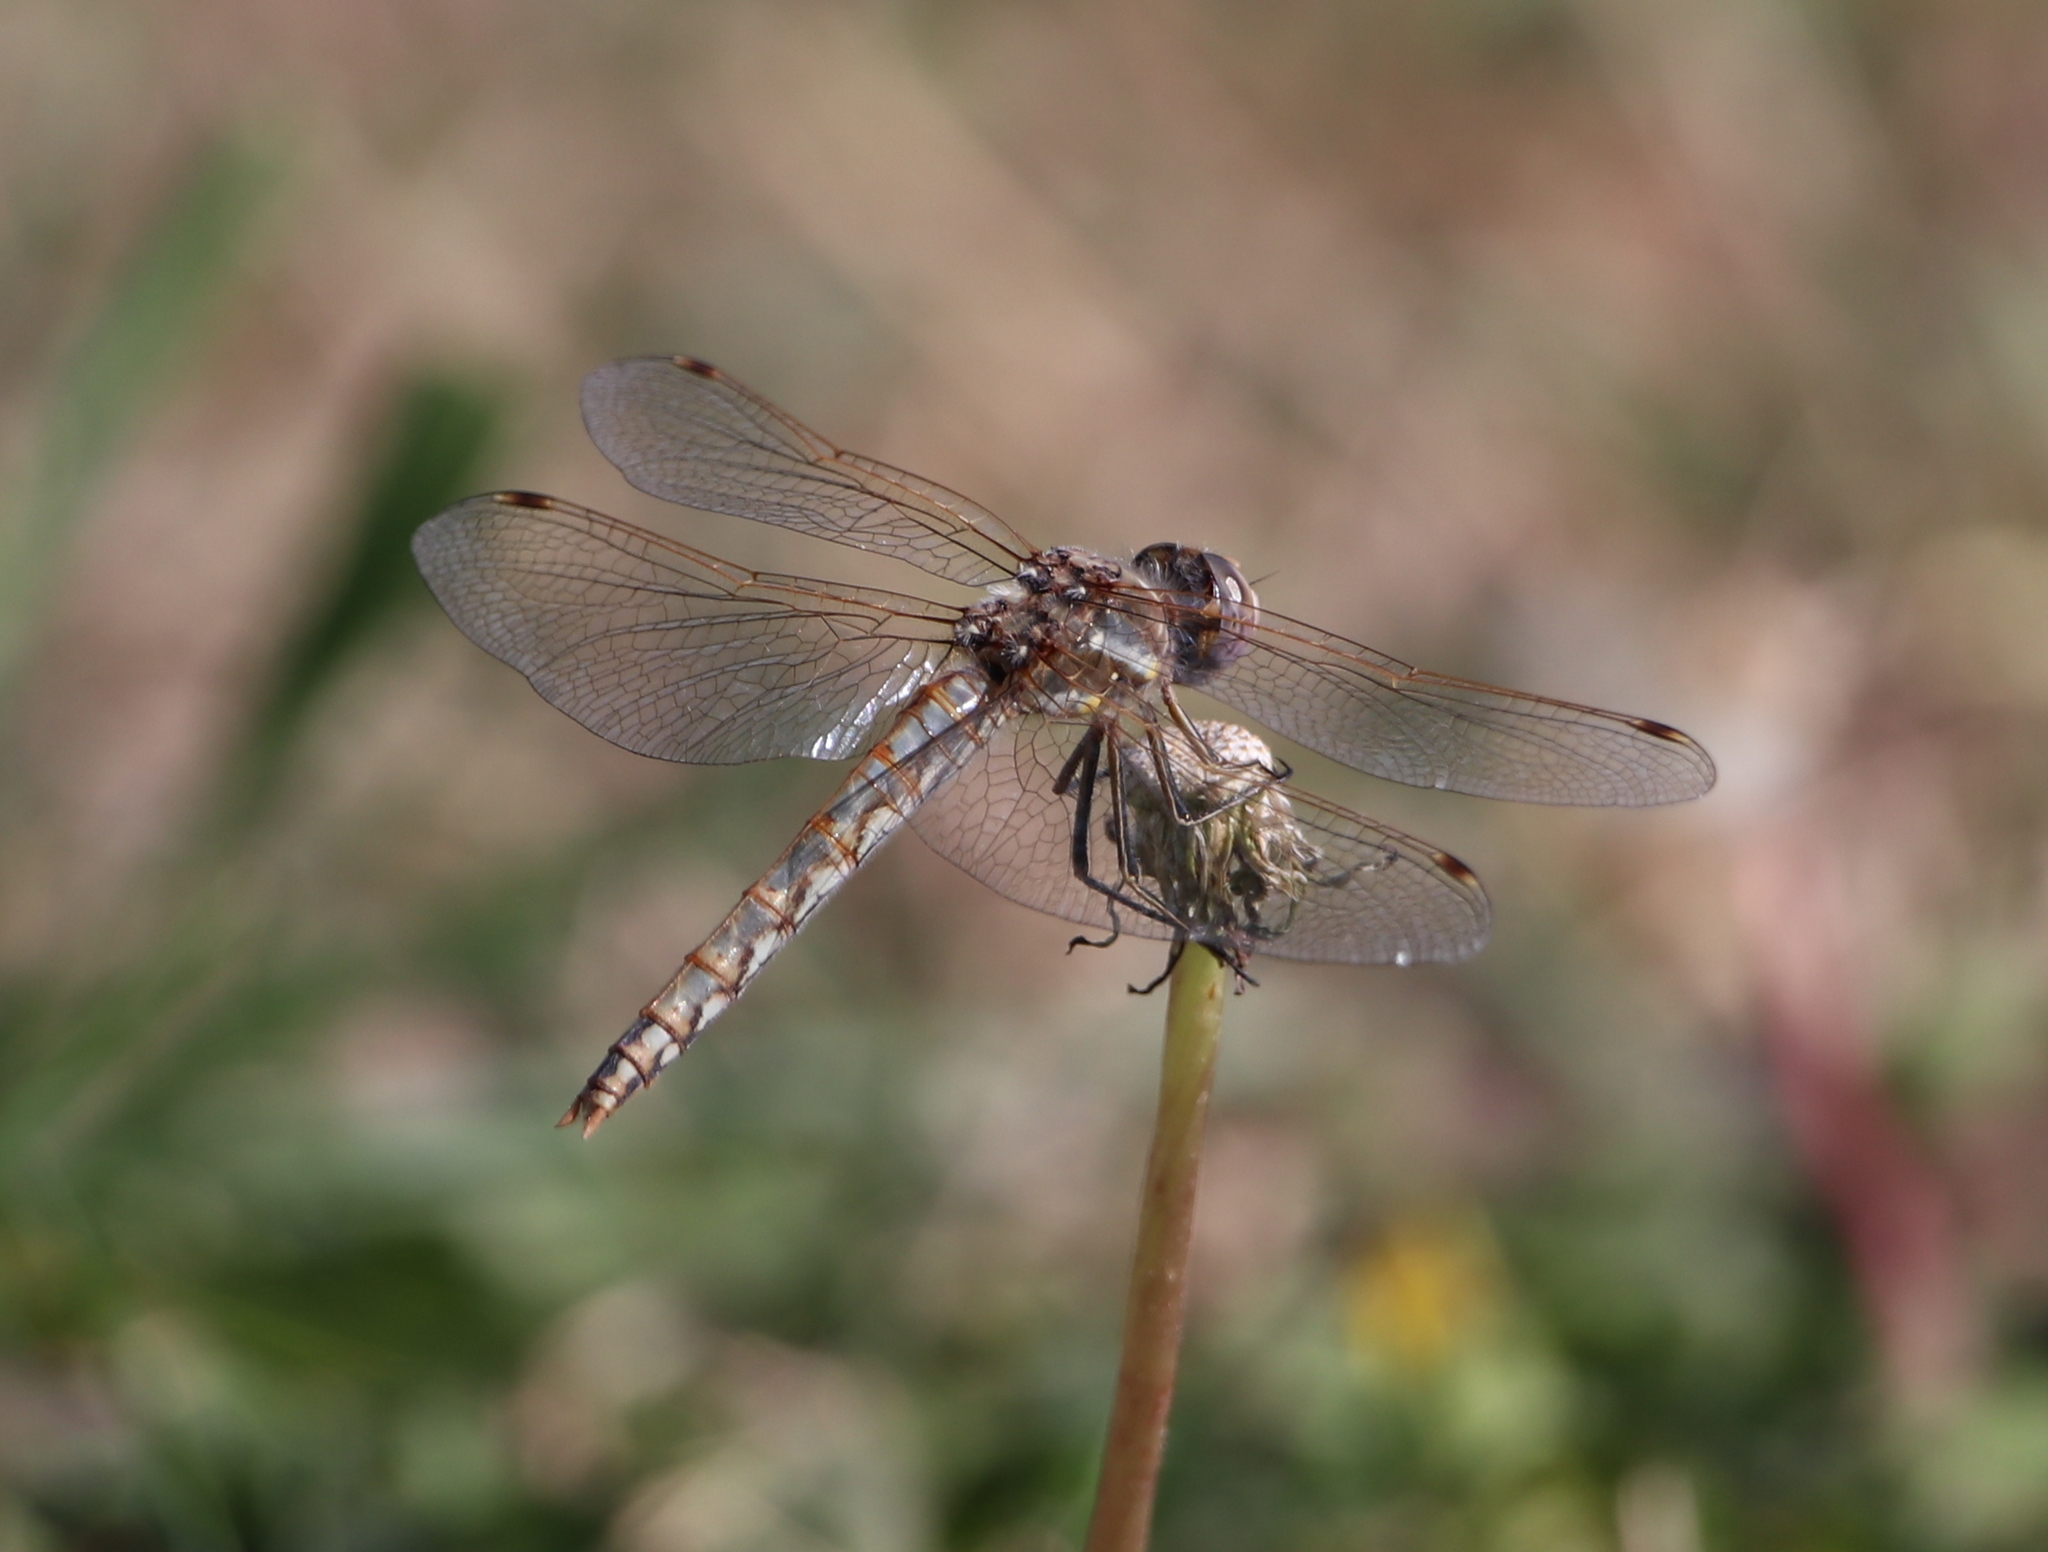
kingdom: Animalia
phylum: Arthropoda
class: Insecta
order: Odonata
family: Libellulidae
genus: Sympetrum
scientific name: Sympetrum corruptum
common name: Variegated meadowhawk
